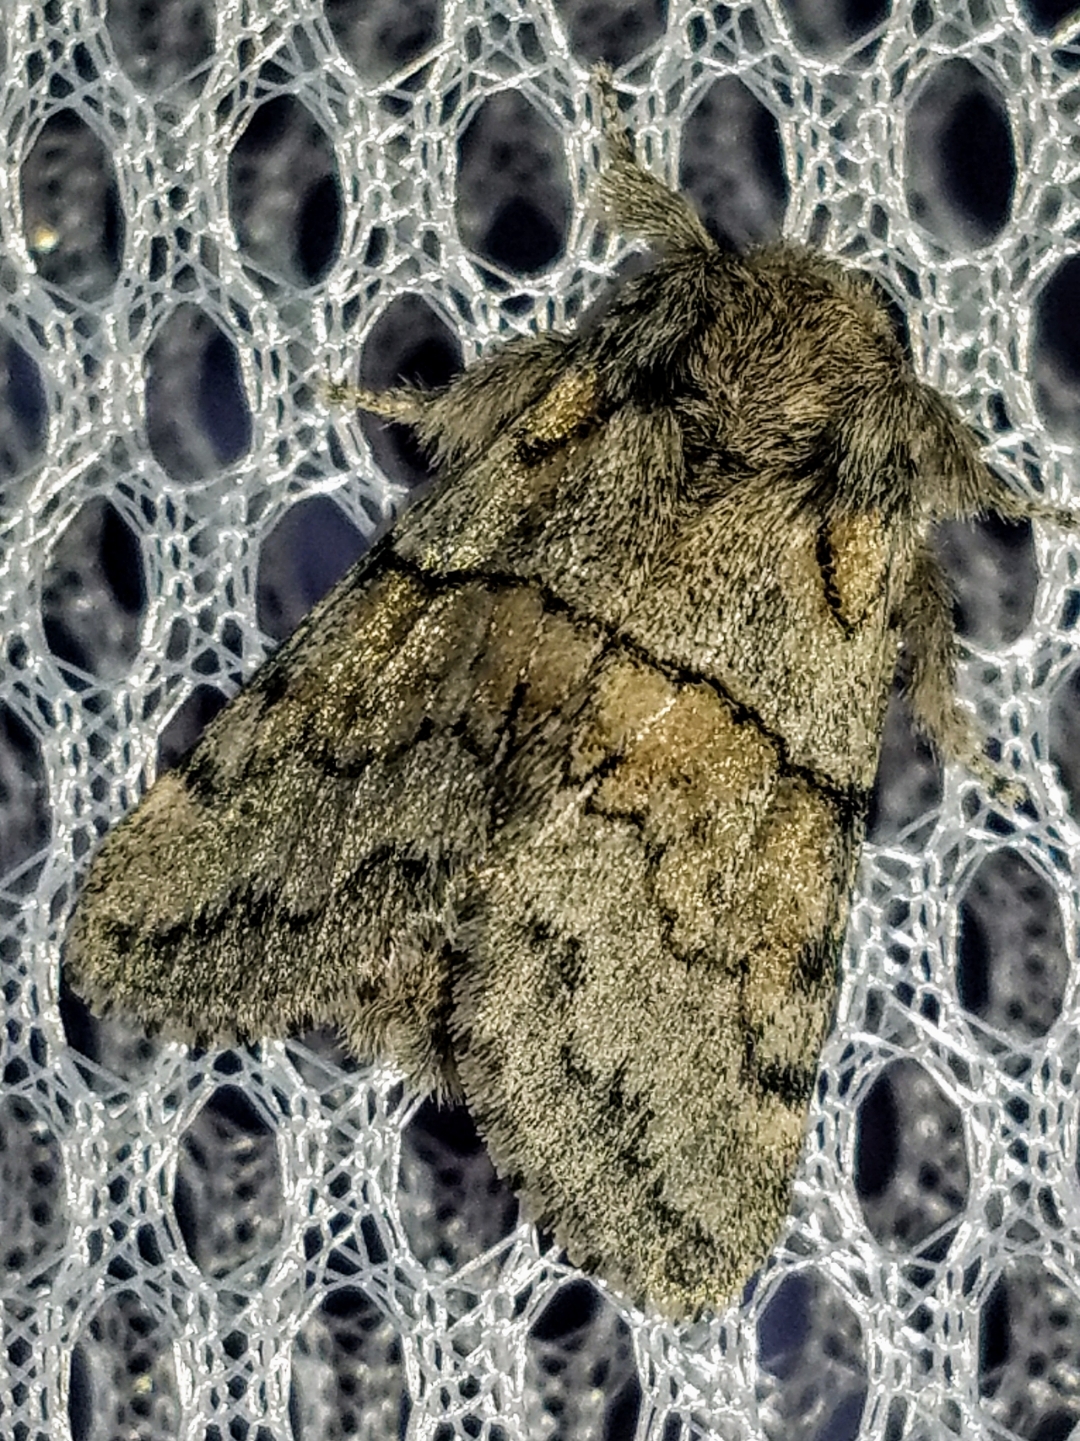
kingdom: Animalia
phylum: Arthropoda
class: Insecta
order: Lepidoptera
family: Notodontidae
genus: Gluphisia
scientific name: Gluphisia septentrionis
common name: Common gluphisia
